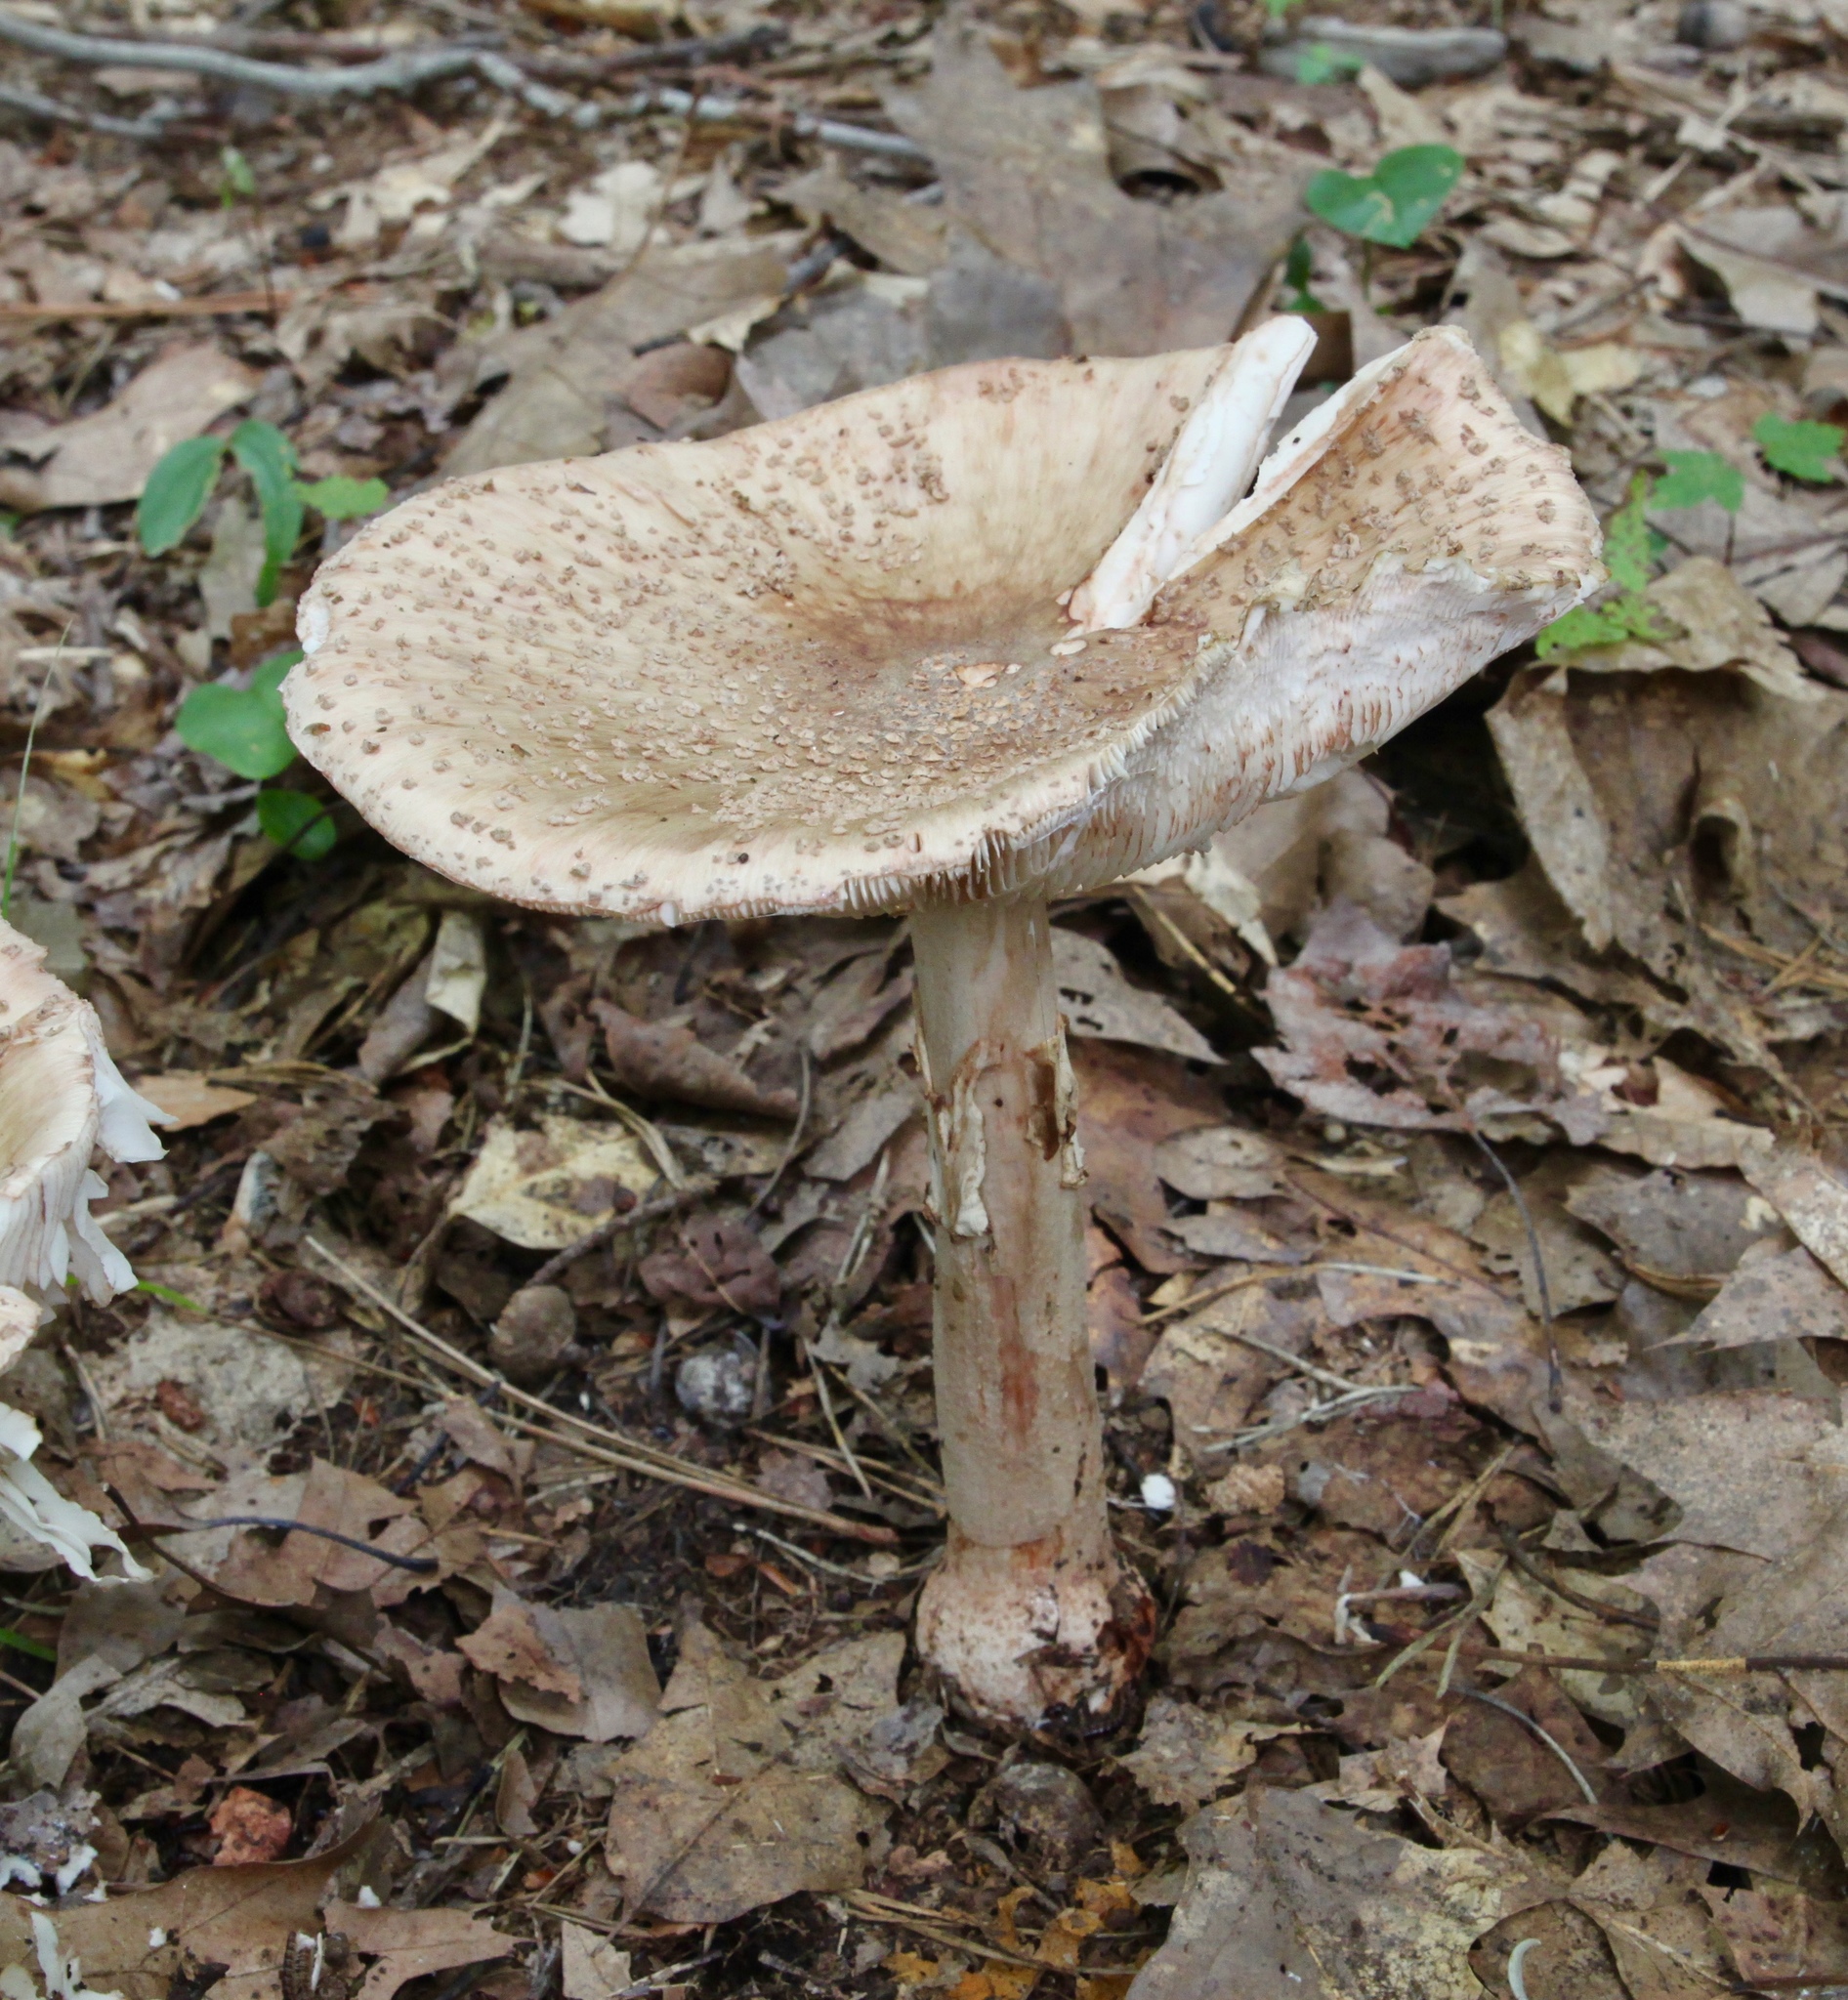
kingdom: Fungi
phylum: Basidiomycota
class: Agaricomycetes
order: Agaricales
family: Amanitaceae
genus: Amanita
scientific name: Amanita rubescens
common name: Blusher
